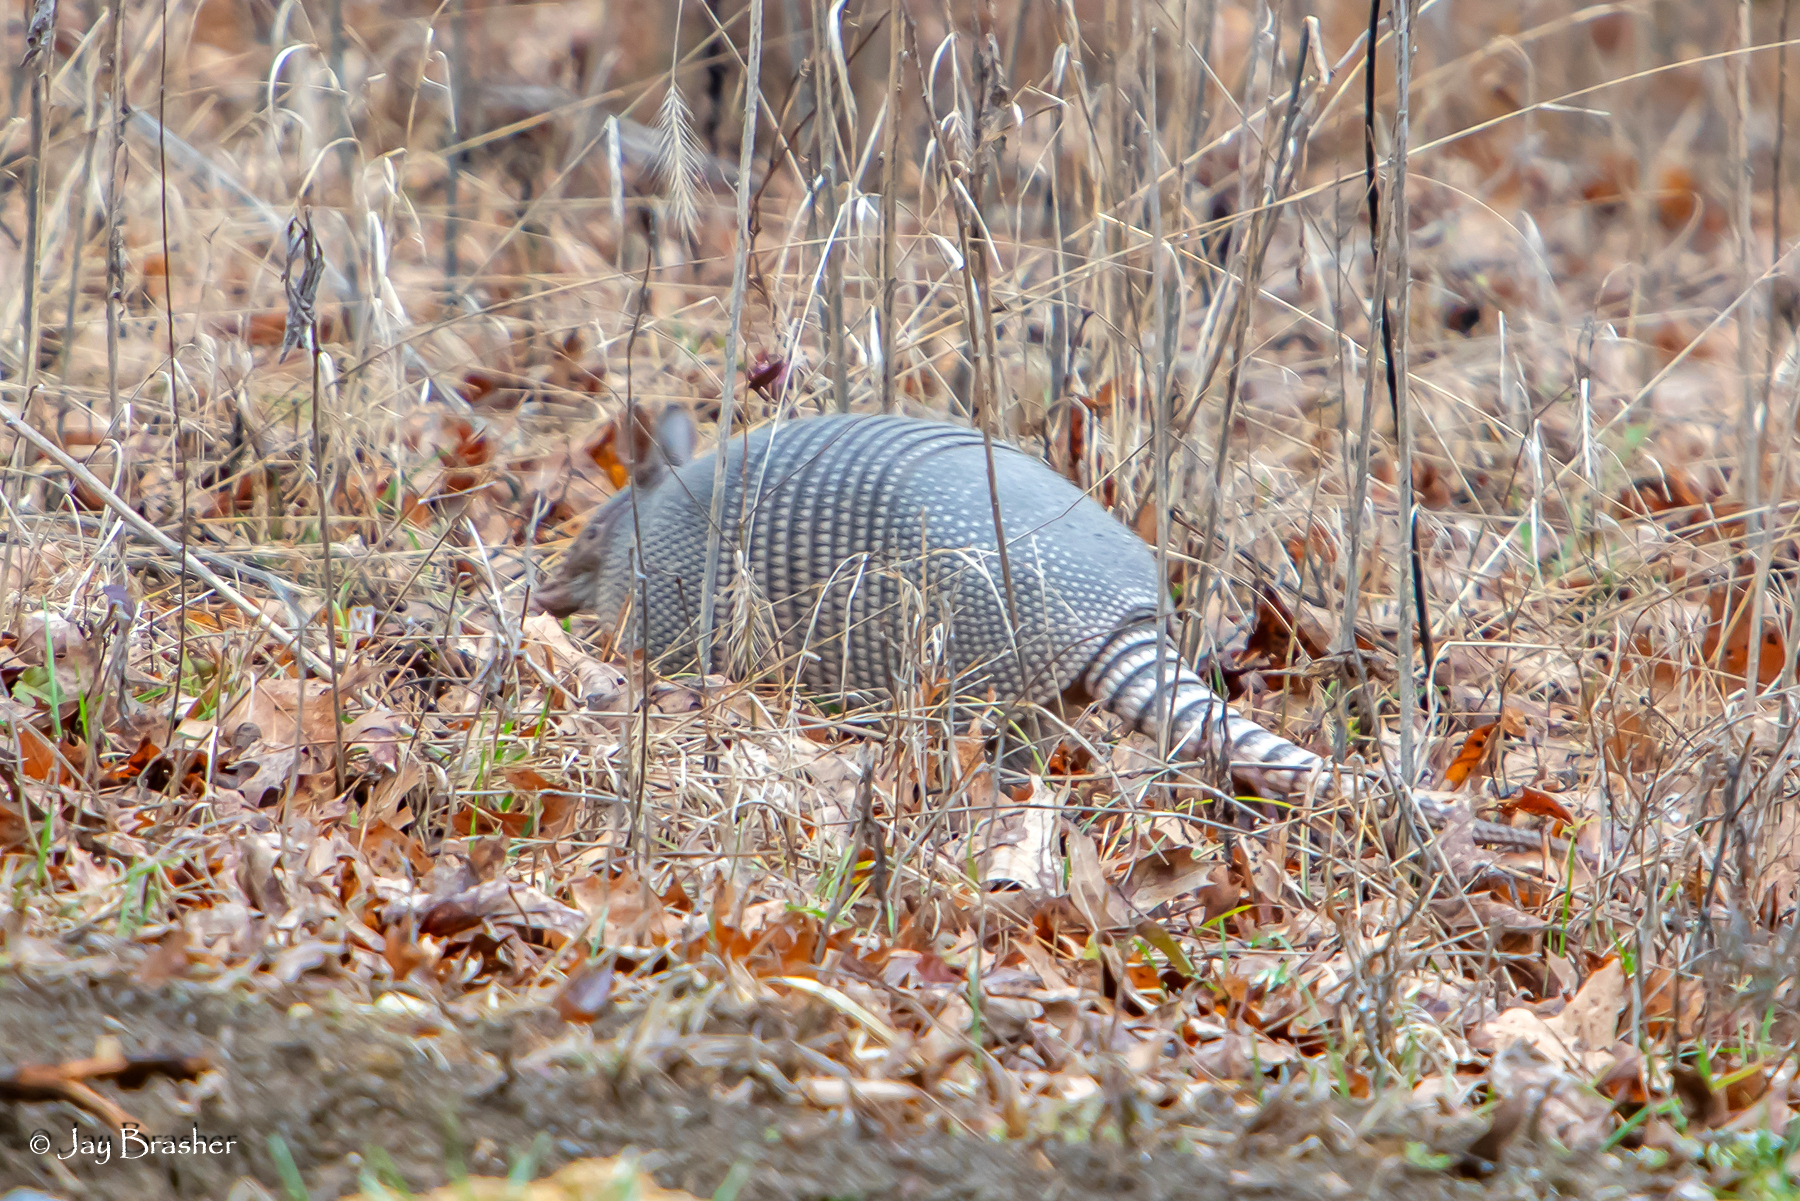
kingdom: Animalia
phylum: Chordata
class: Mammalia
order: Cingulata
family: Dasypodidae
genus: Dasypus
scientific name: Dasypus novemcinctus
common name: Nine-banded armadillo
